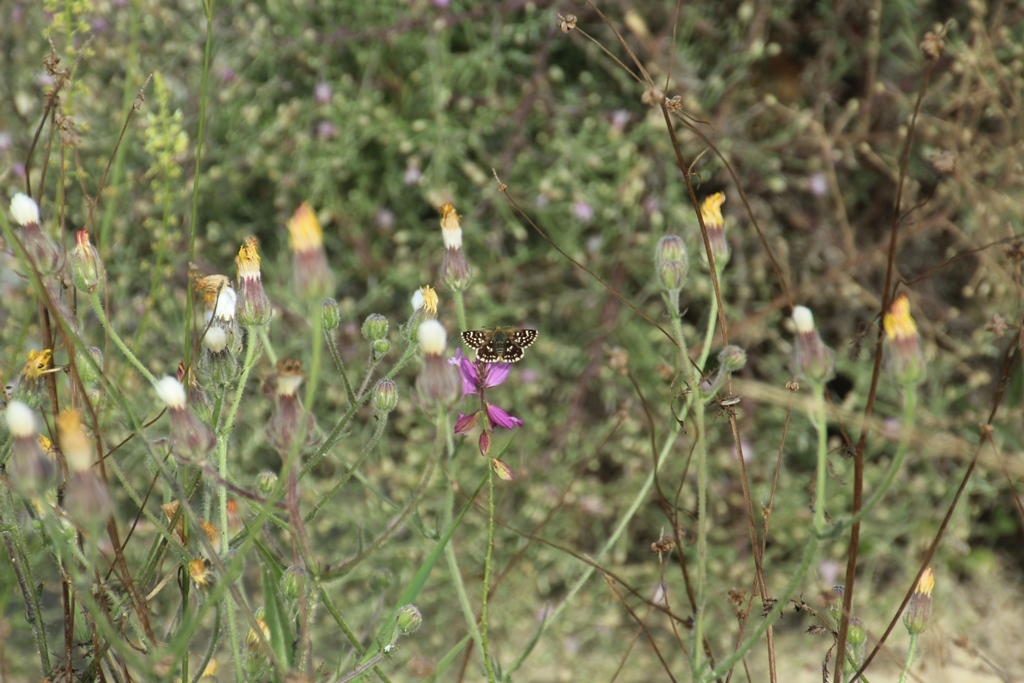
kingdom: Animalia
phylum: Arthropoda
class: Insecta
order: Lepidoptera
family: Hesperiidae
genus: Spialia
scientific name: Spialia sertorius
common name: Red underwing skipper
